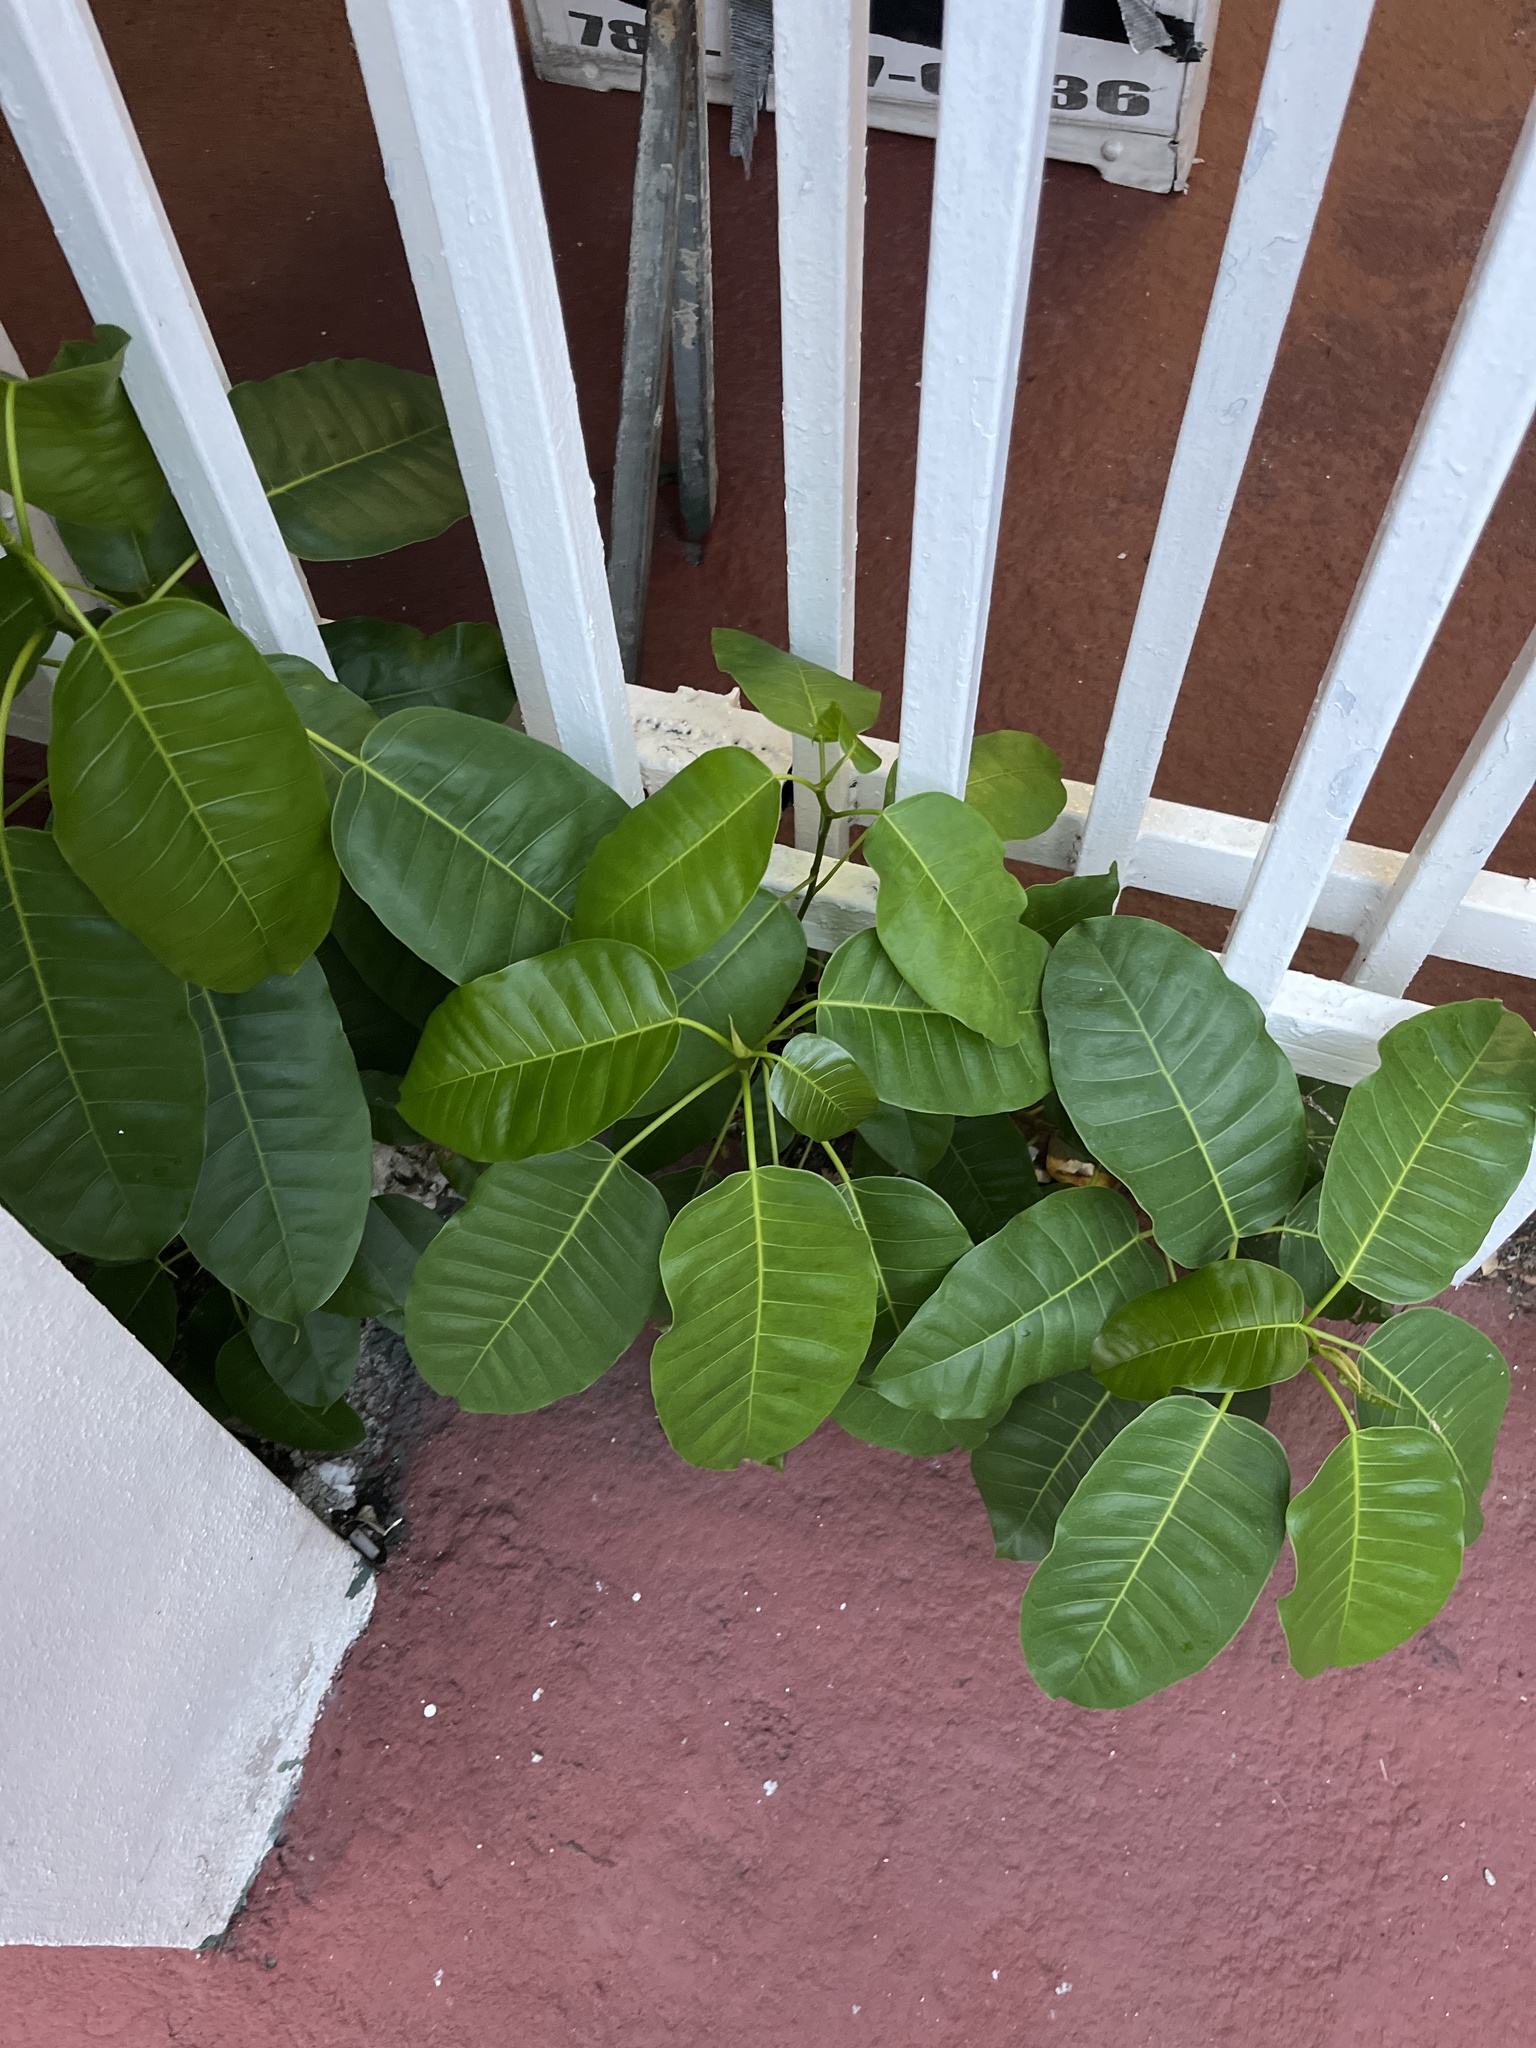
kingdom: Plantae
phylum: Tracheophyta
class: Magnoliopsida
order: Rosales
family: Moraceae
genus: Ficus
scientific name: Ficus citrifolia
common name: Strangler fig
